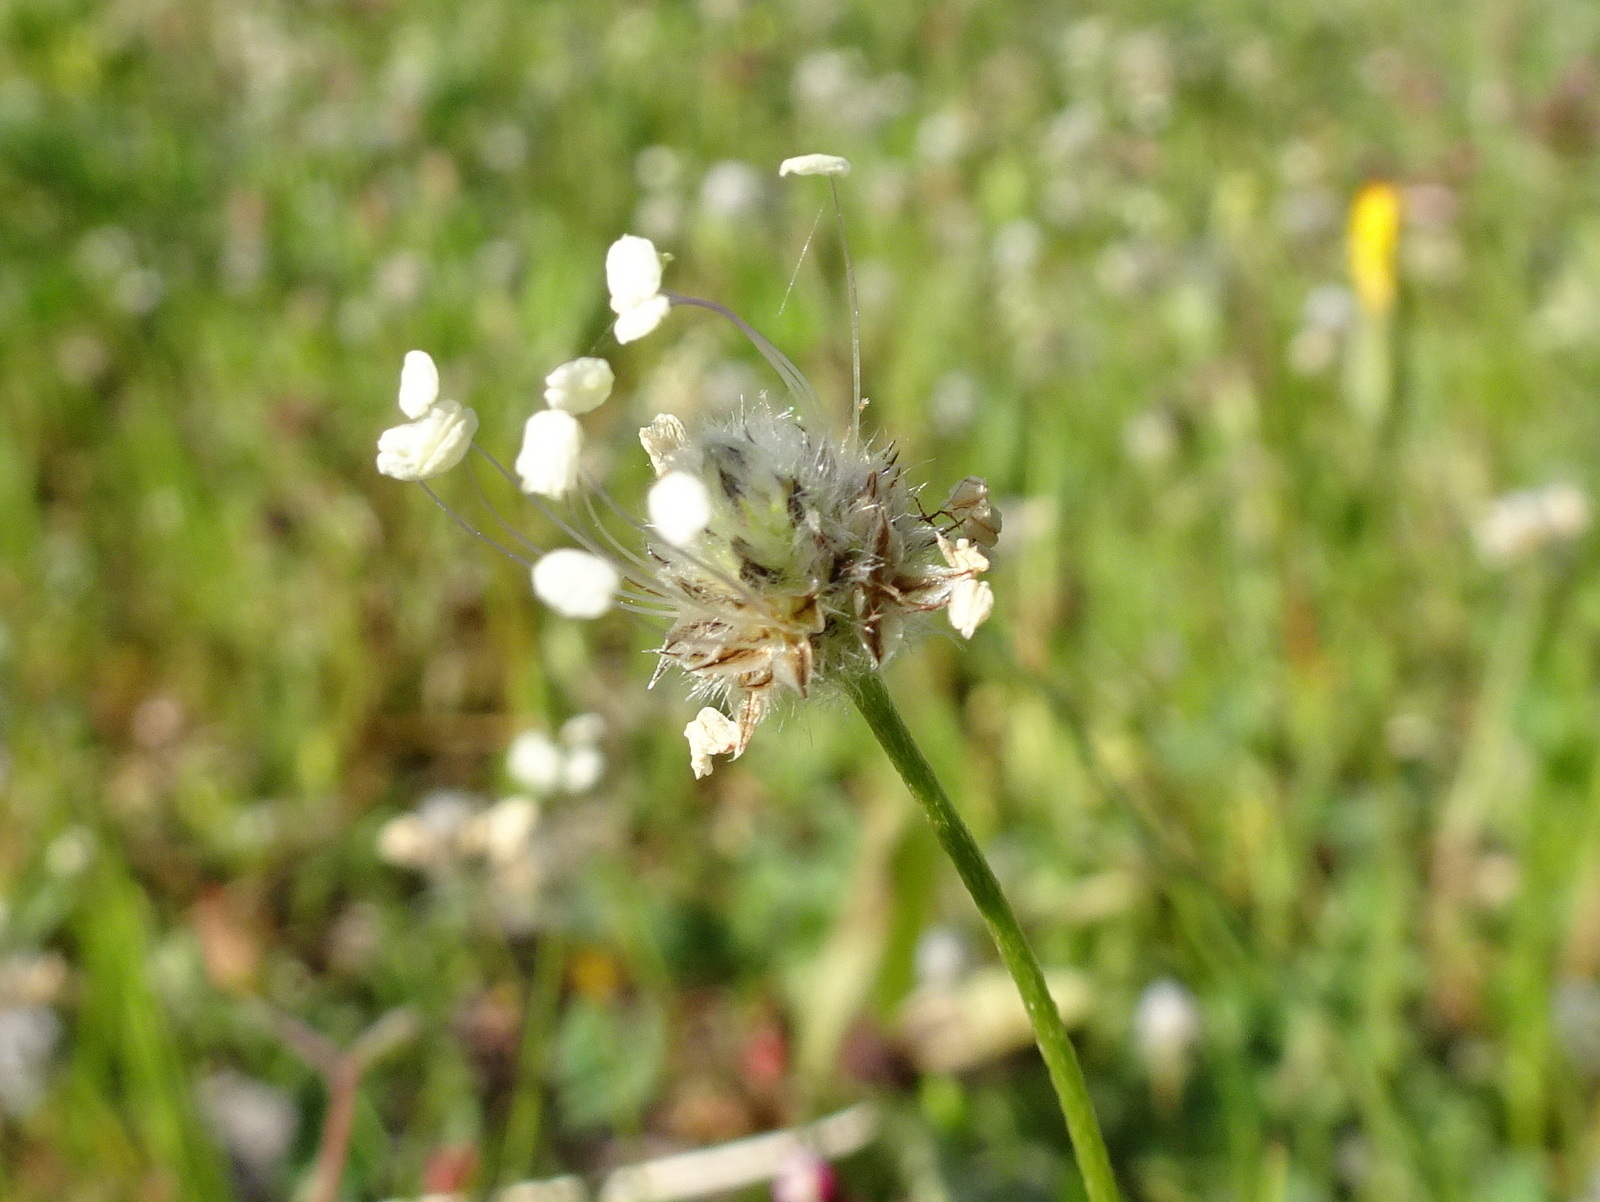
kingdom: Plantae
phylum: Tracheophyta
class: Magnoliopsida
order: Lamiales
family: Plantaginaceae
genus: Plantago
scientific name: Plantago lagopus
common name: Hare-foot plantain
